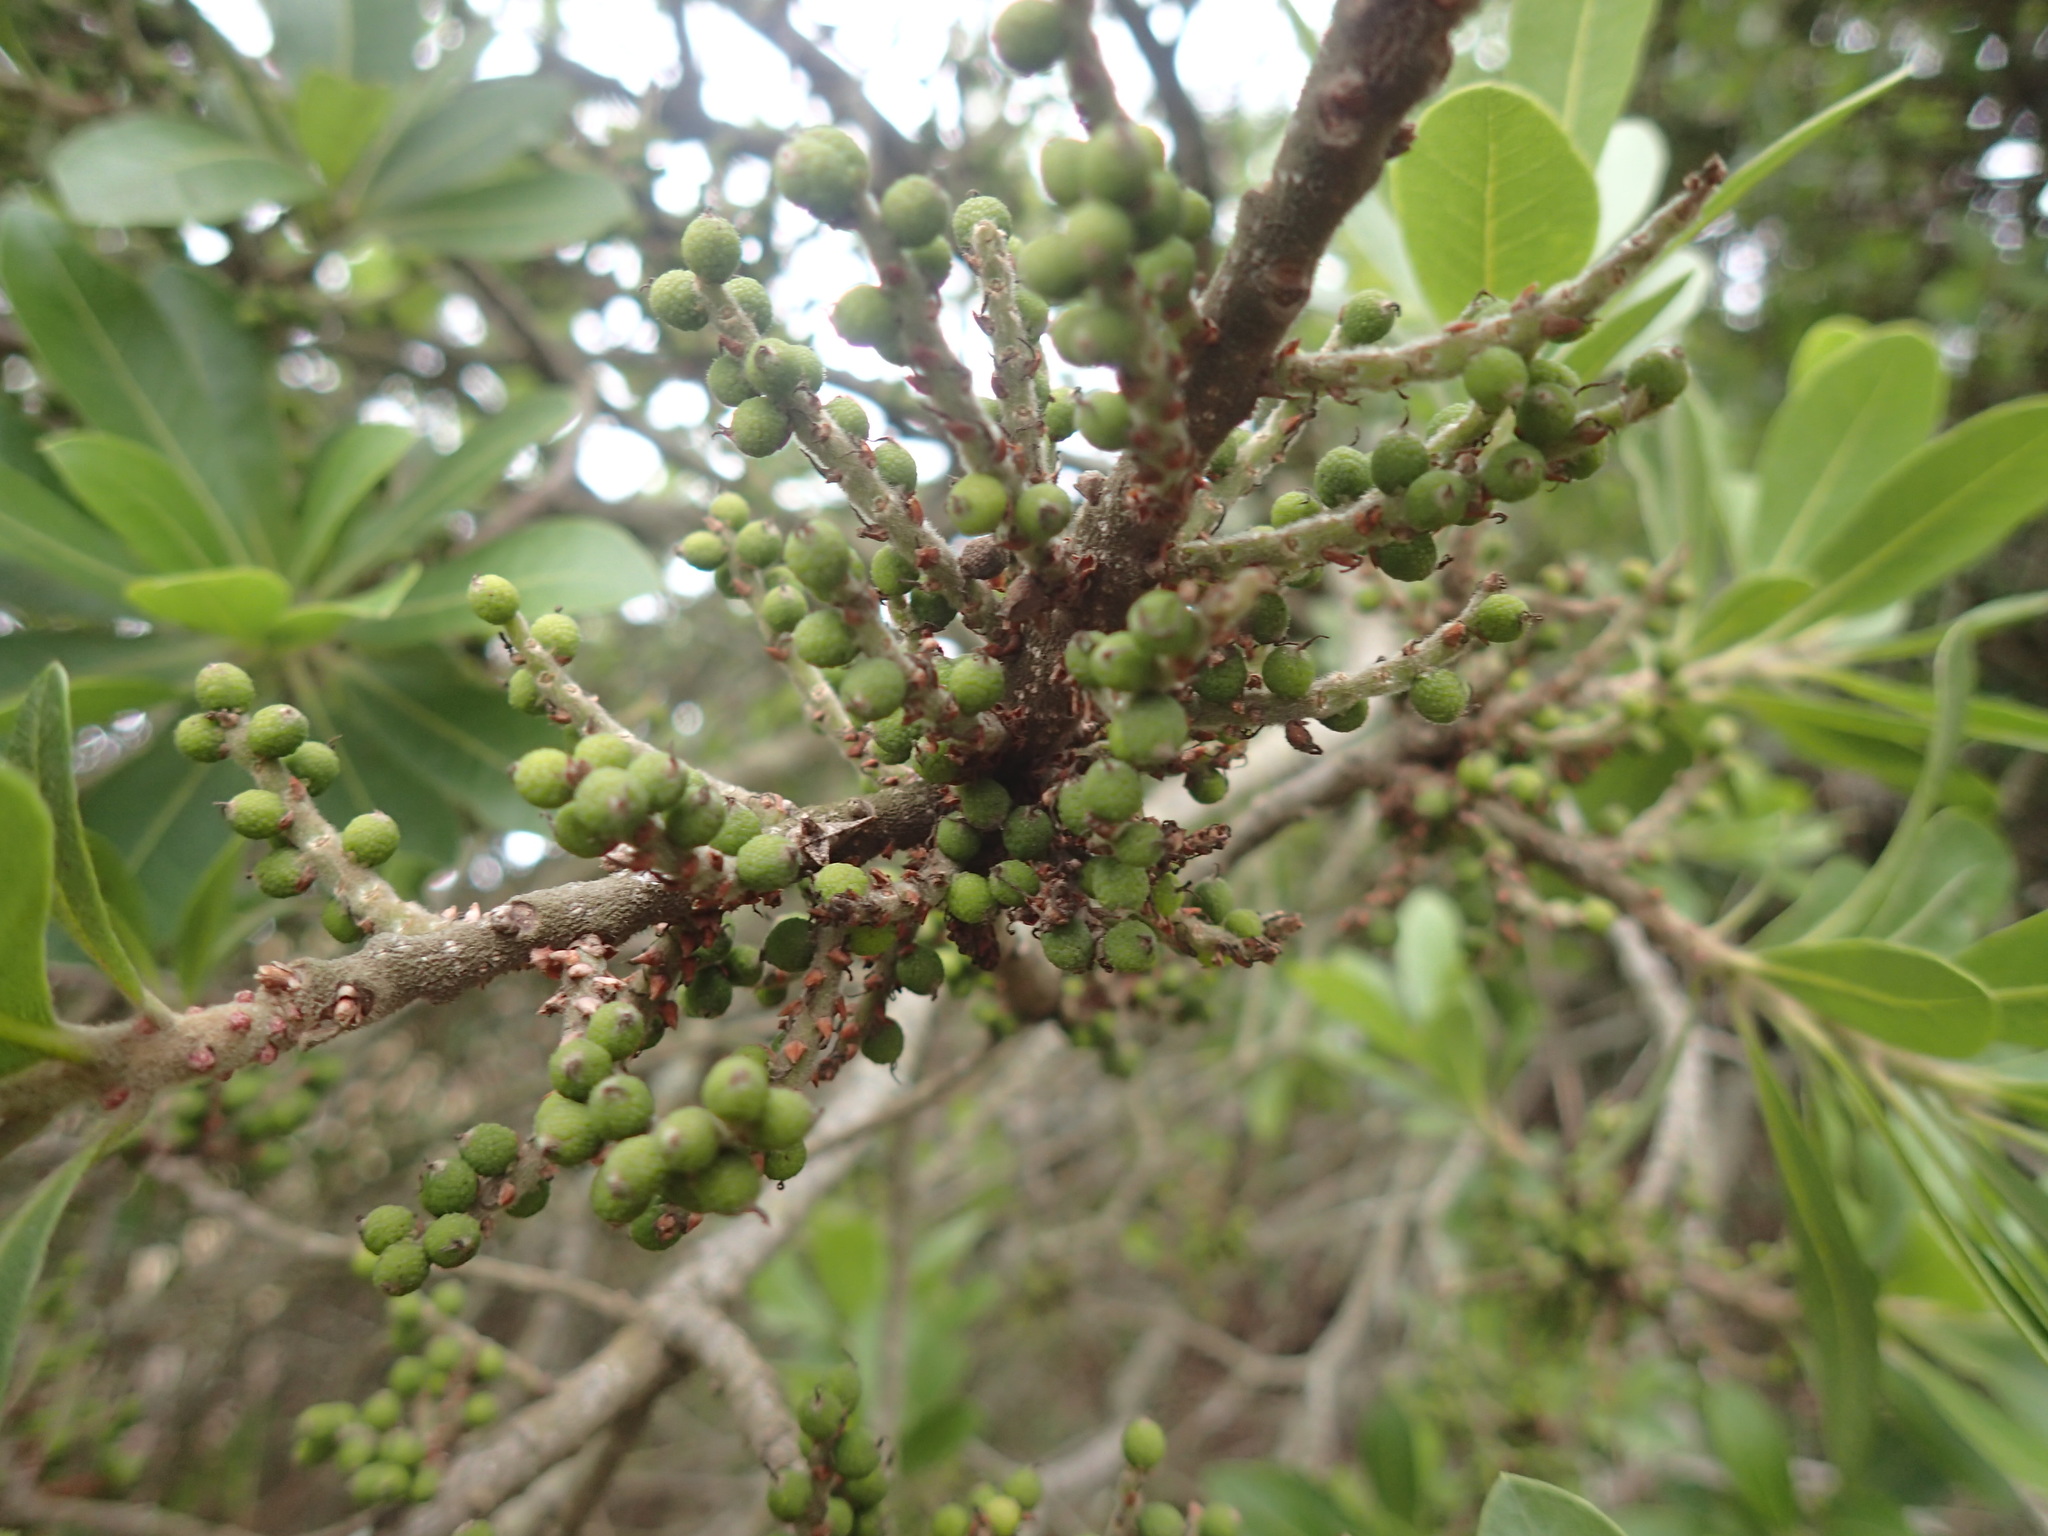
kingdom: Plantae
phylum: Tracheophyta
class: Magnoliopsida
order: Fagales
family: Myricaceae
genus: Morella
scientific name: Morella pilulifera
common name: Broad-leaved waxberry
